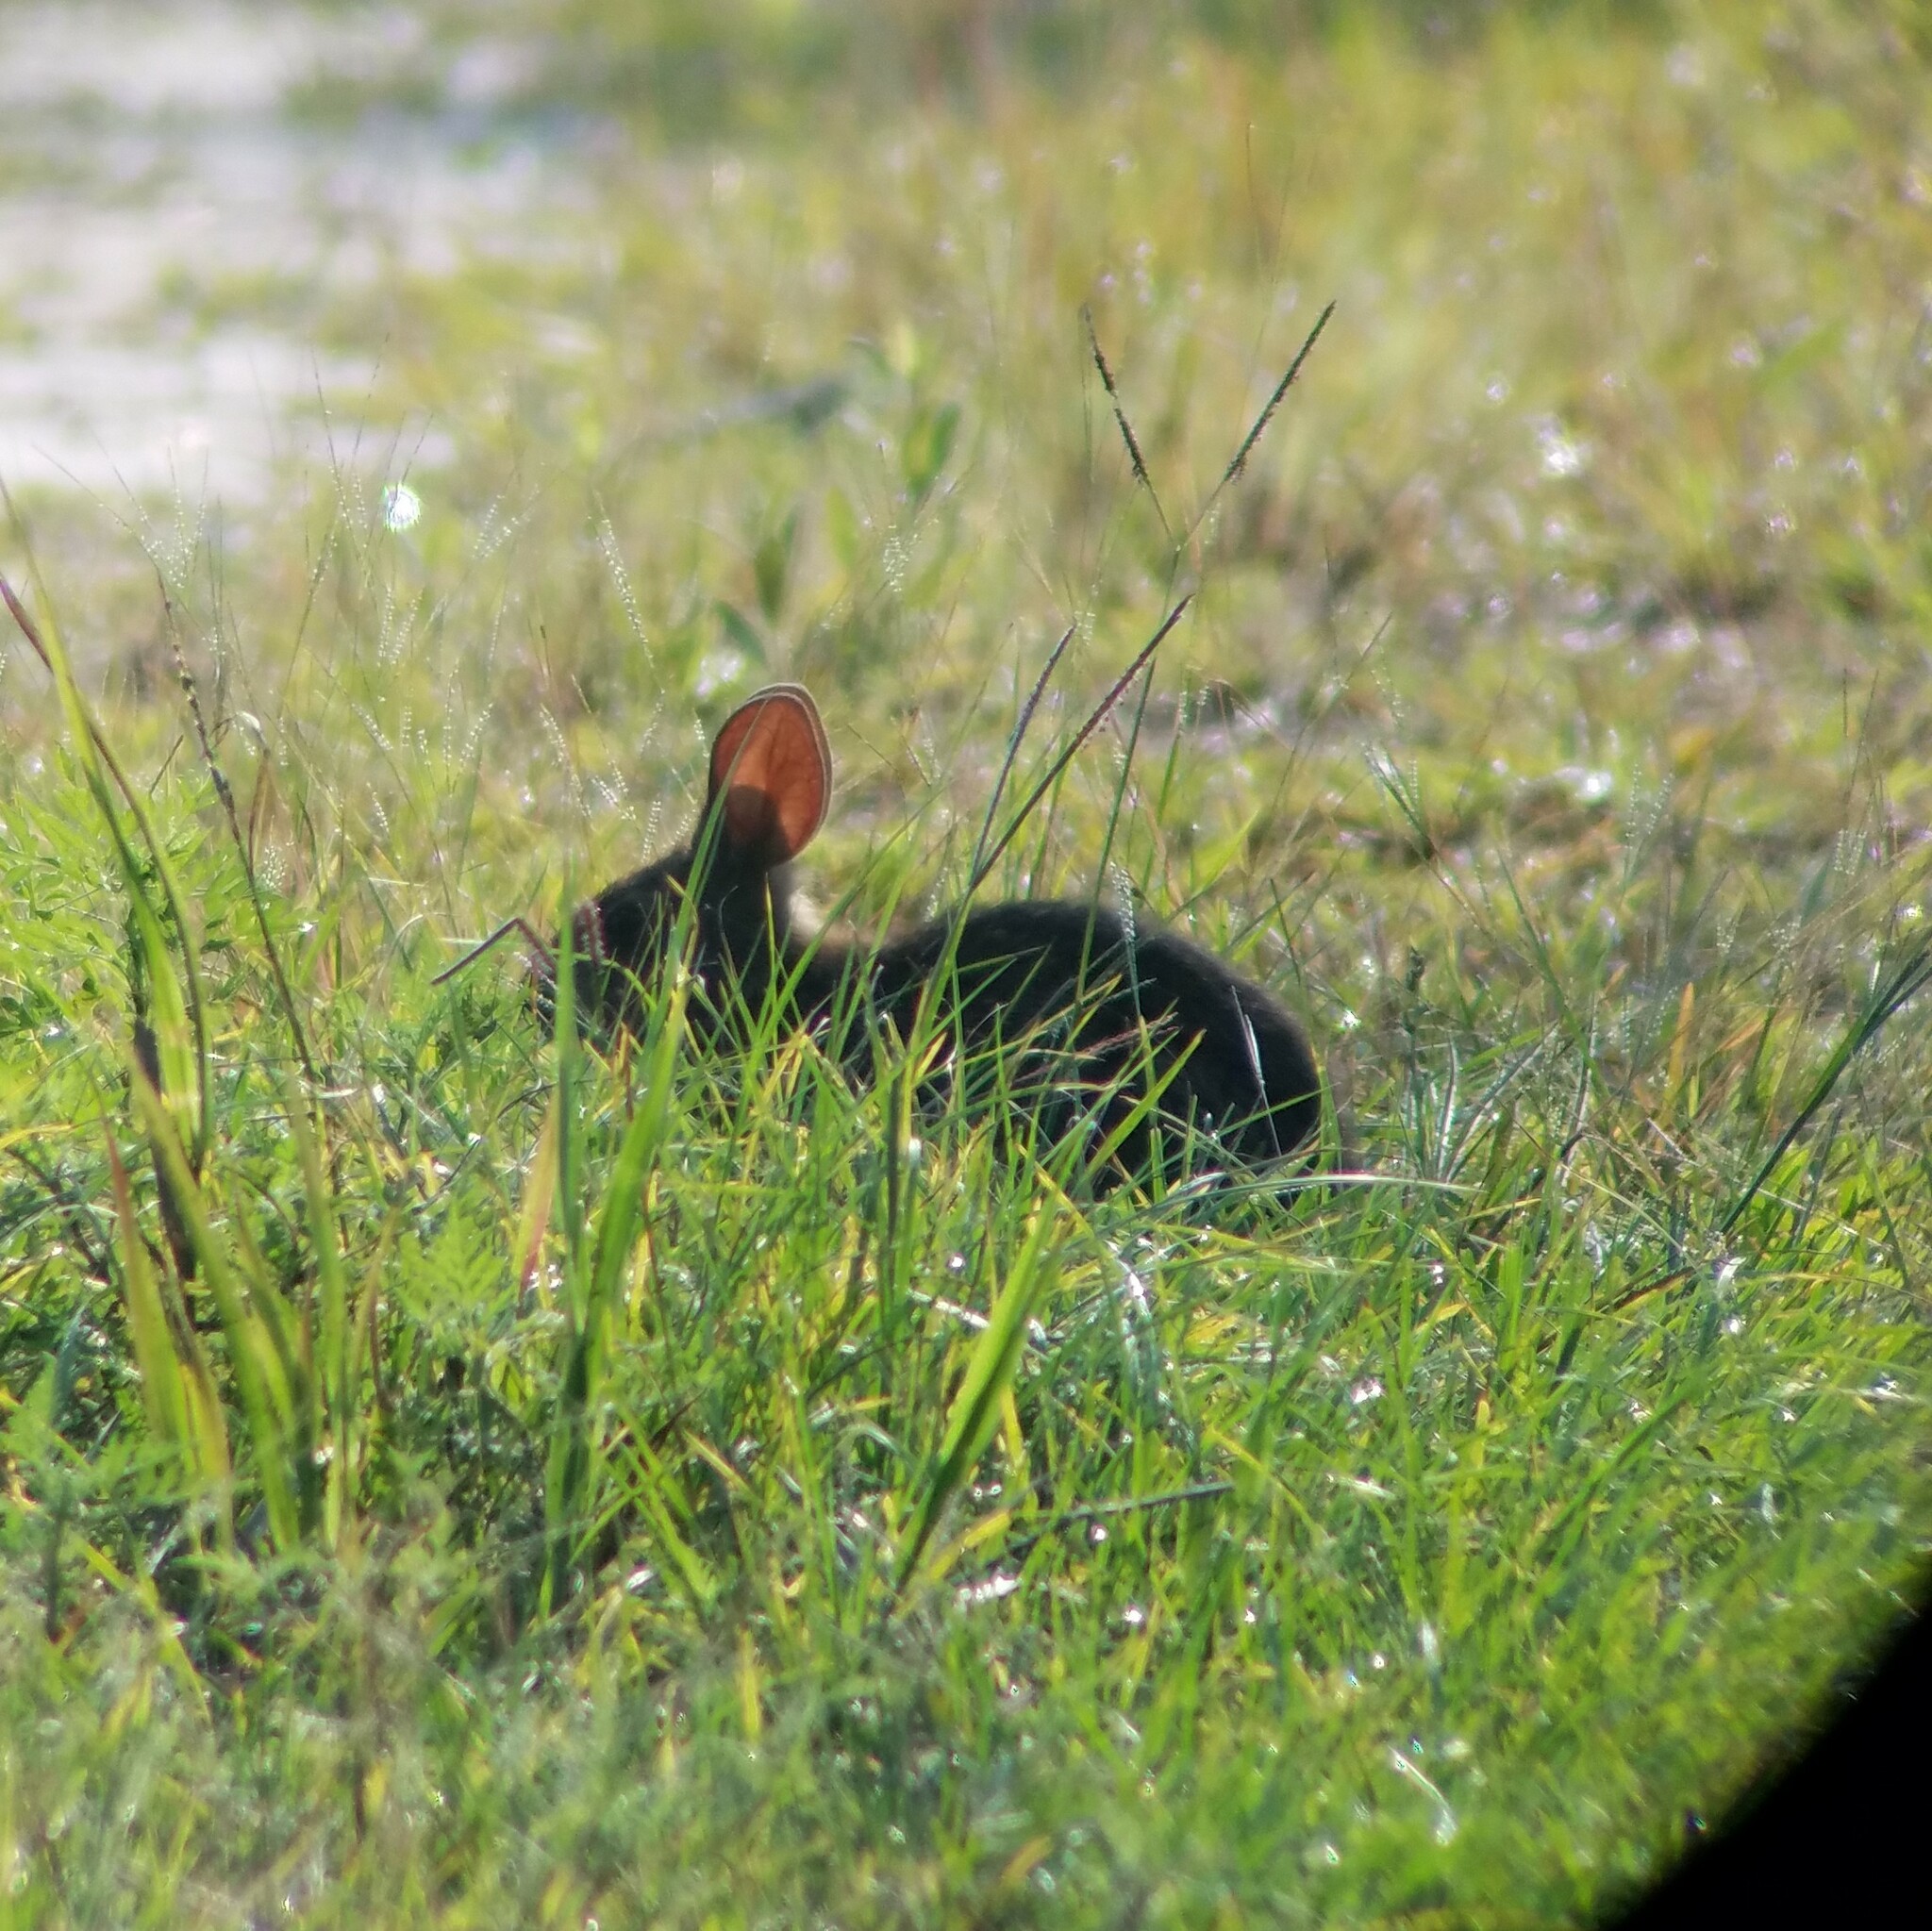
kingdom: Animalia
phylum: Chordata
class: Mammalia
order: Lagomorpha
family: Leporidae
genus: Sylvilagus
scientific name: Sylvilagus palustris
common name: Marsh rabbit
